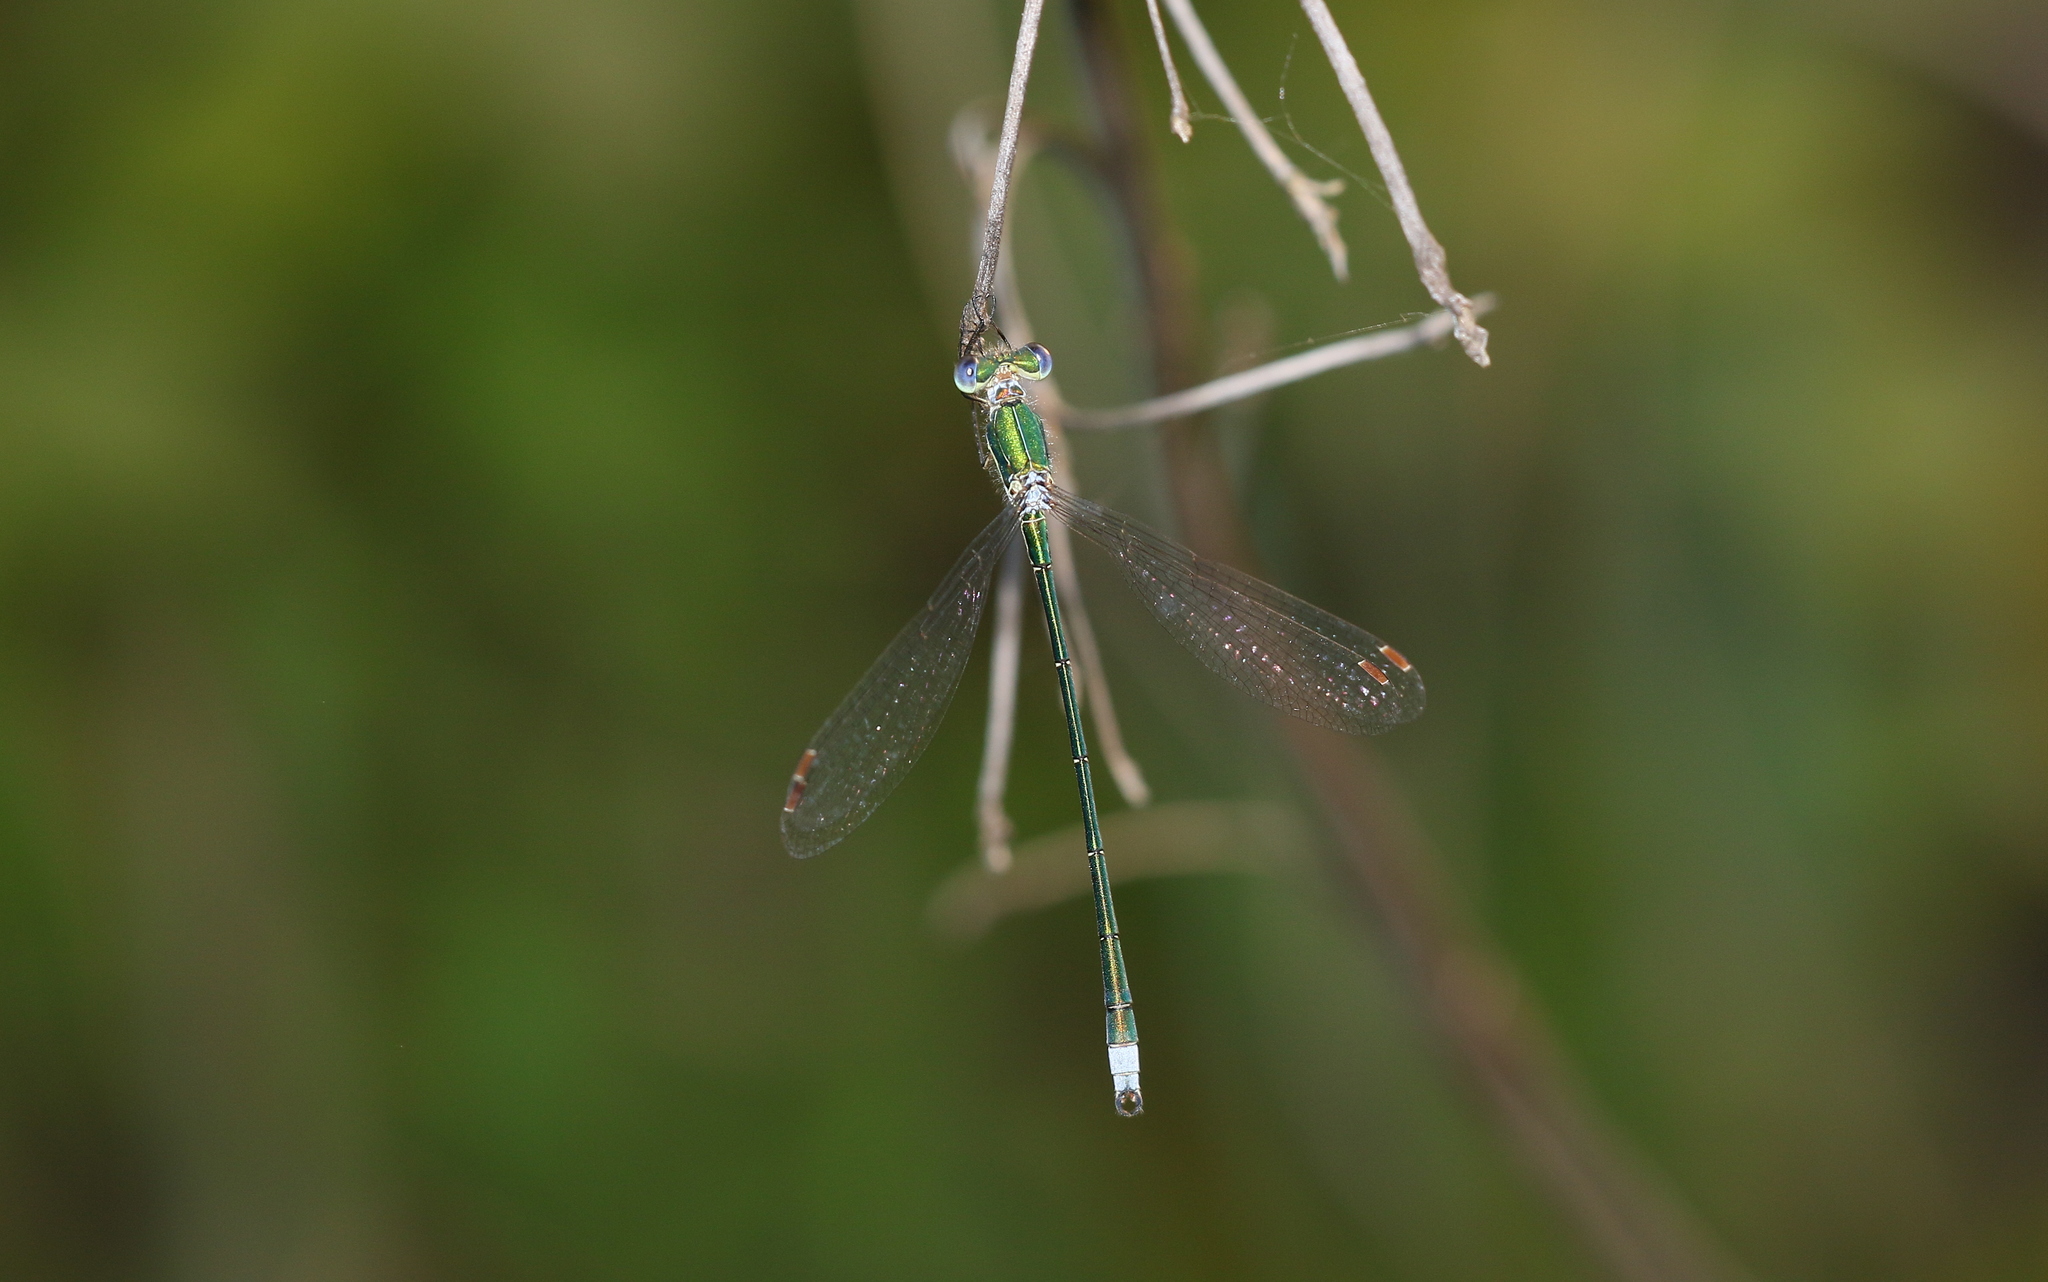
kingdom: Animalia
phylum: Arthropoda
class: Insecta
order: Odonata
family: Lestidae
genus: Lestes
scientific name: Lestes virens
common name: Small emerald spreadwing
